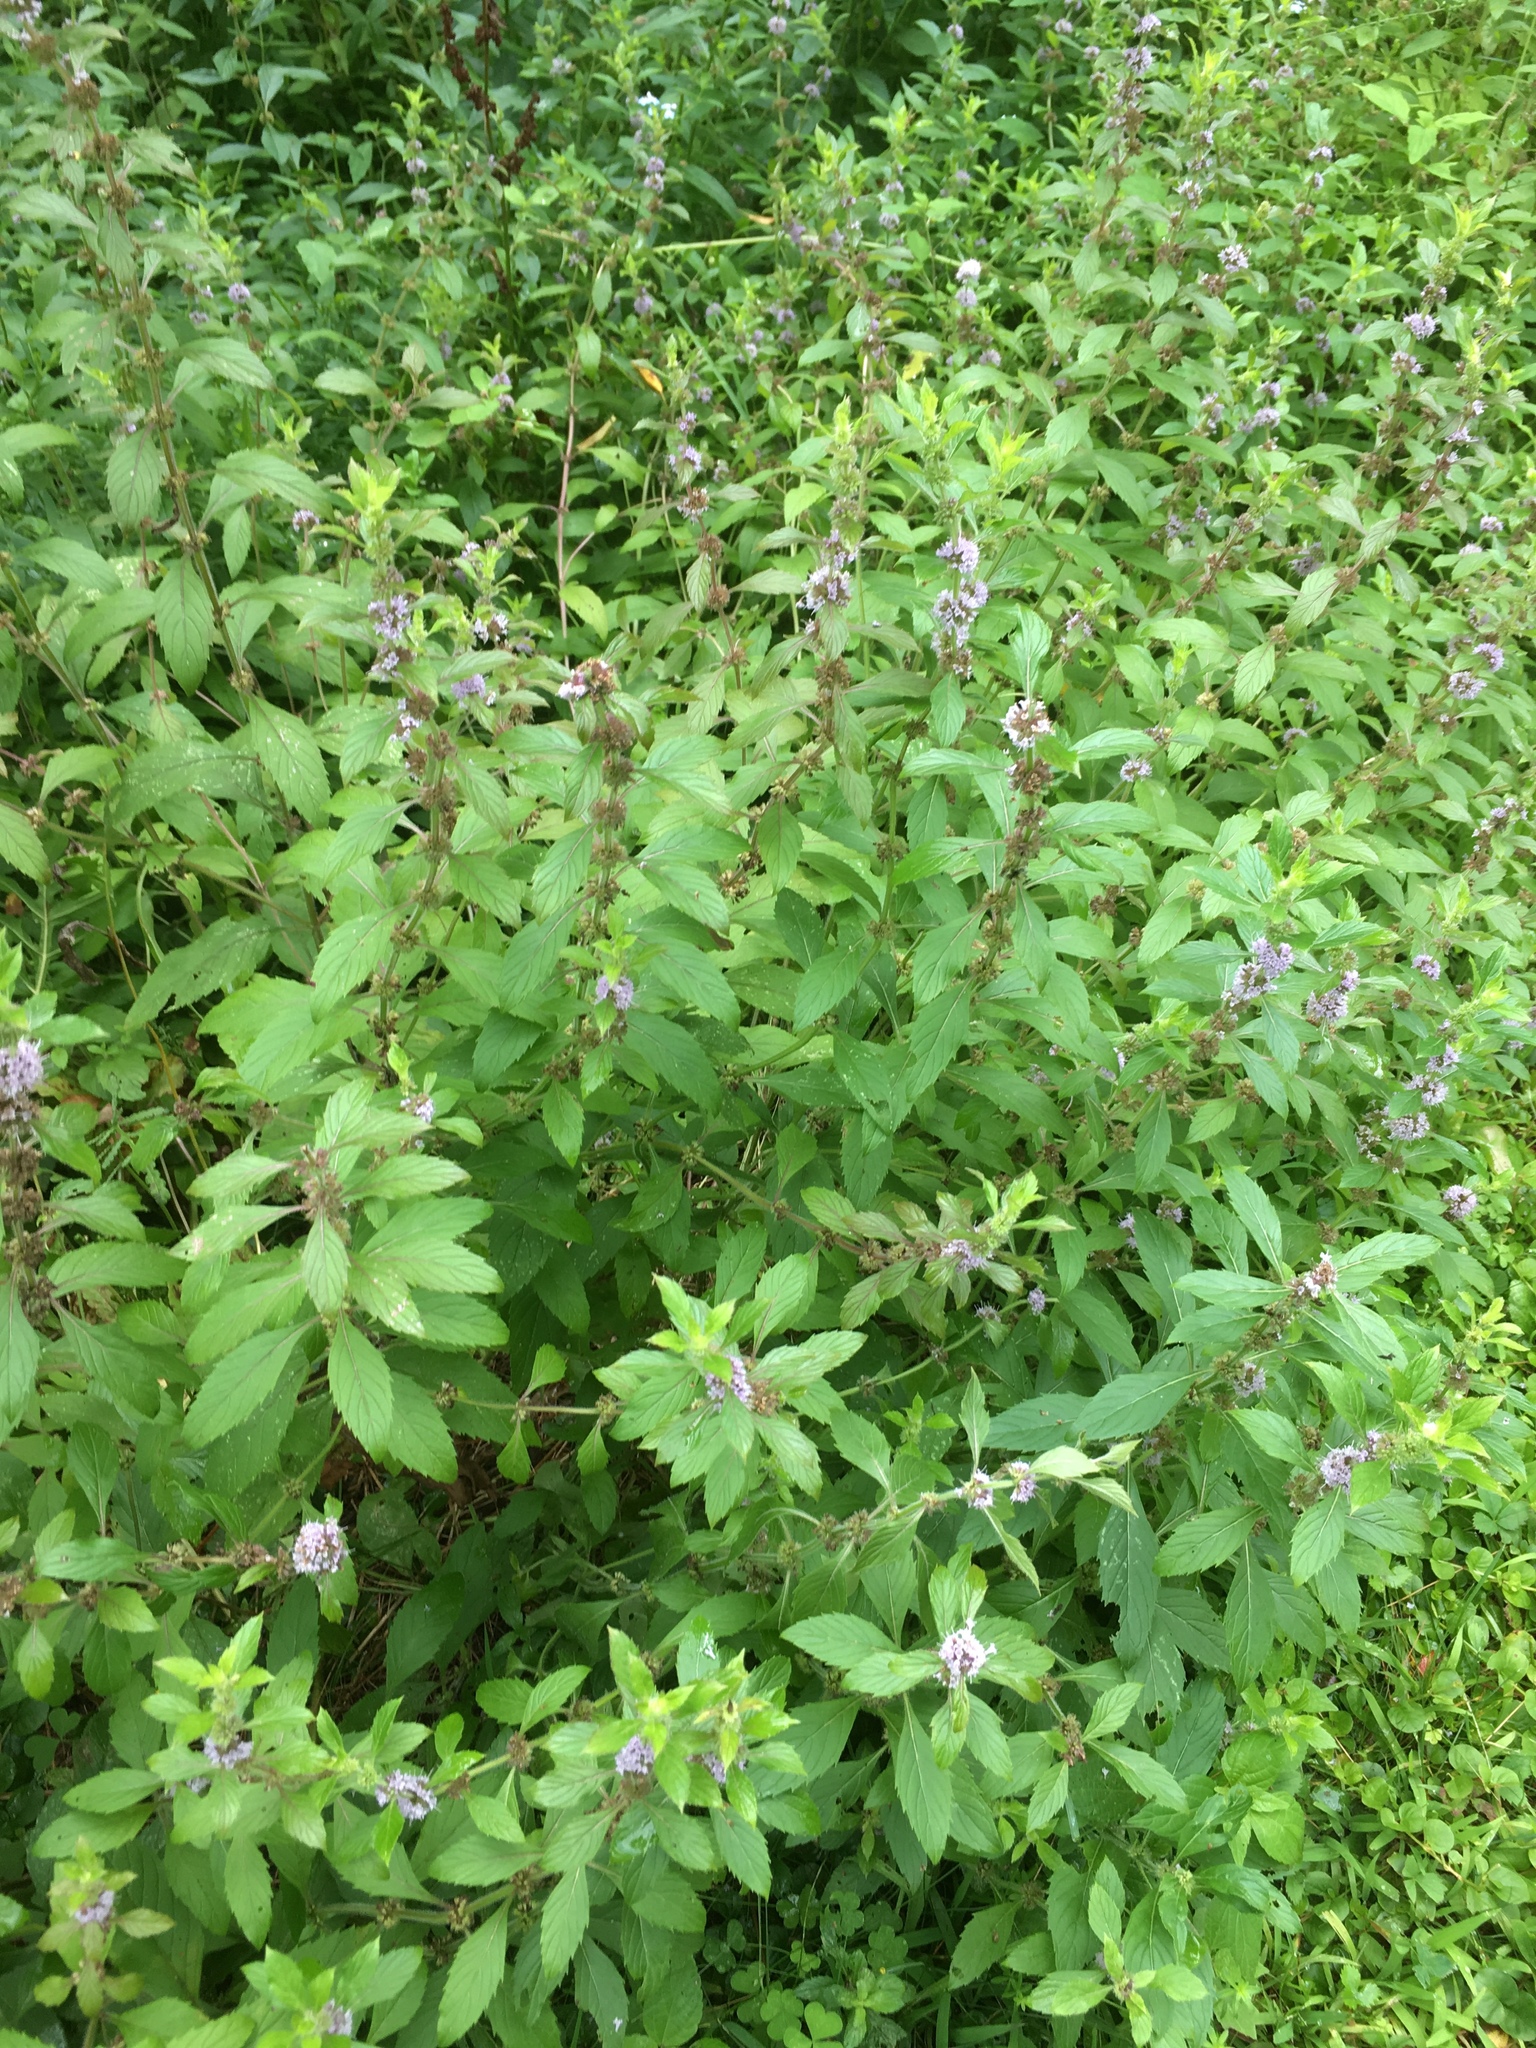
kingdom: Plantae
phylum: Tracheophyta
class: Magnoliopsida
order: Lamiales
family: Lamiaceae
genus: Mentha
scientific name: Mentha canadensis
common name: American corn mint
